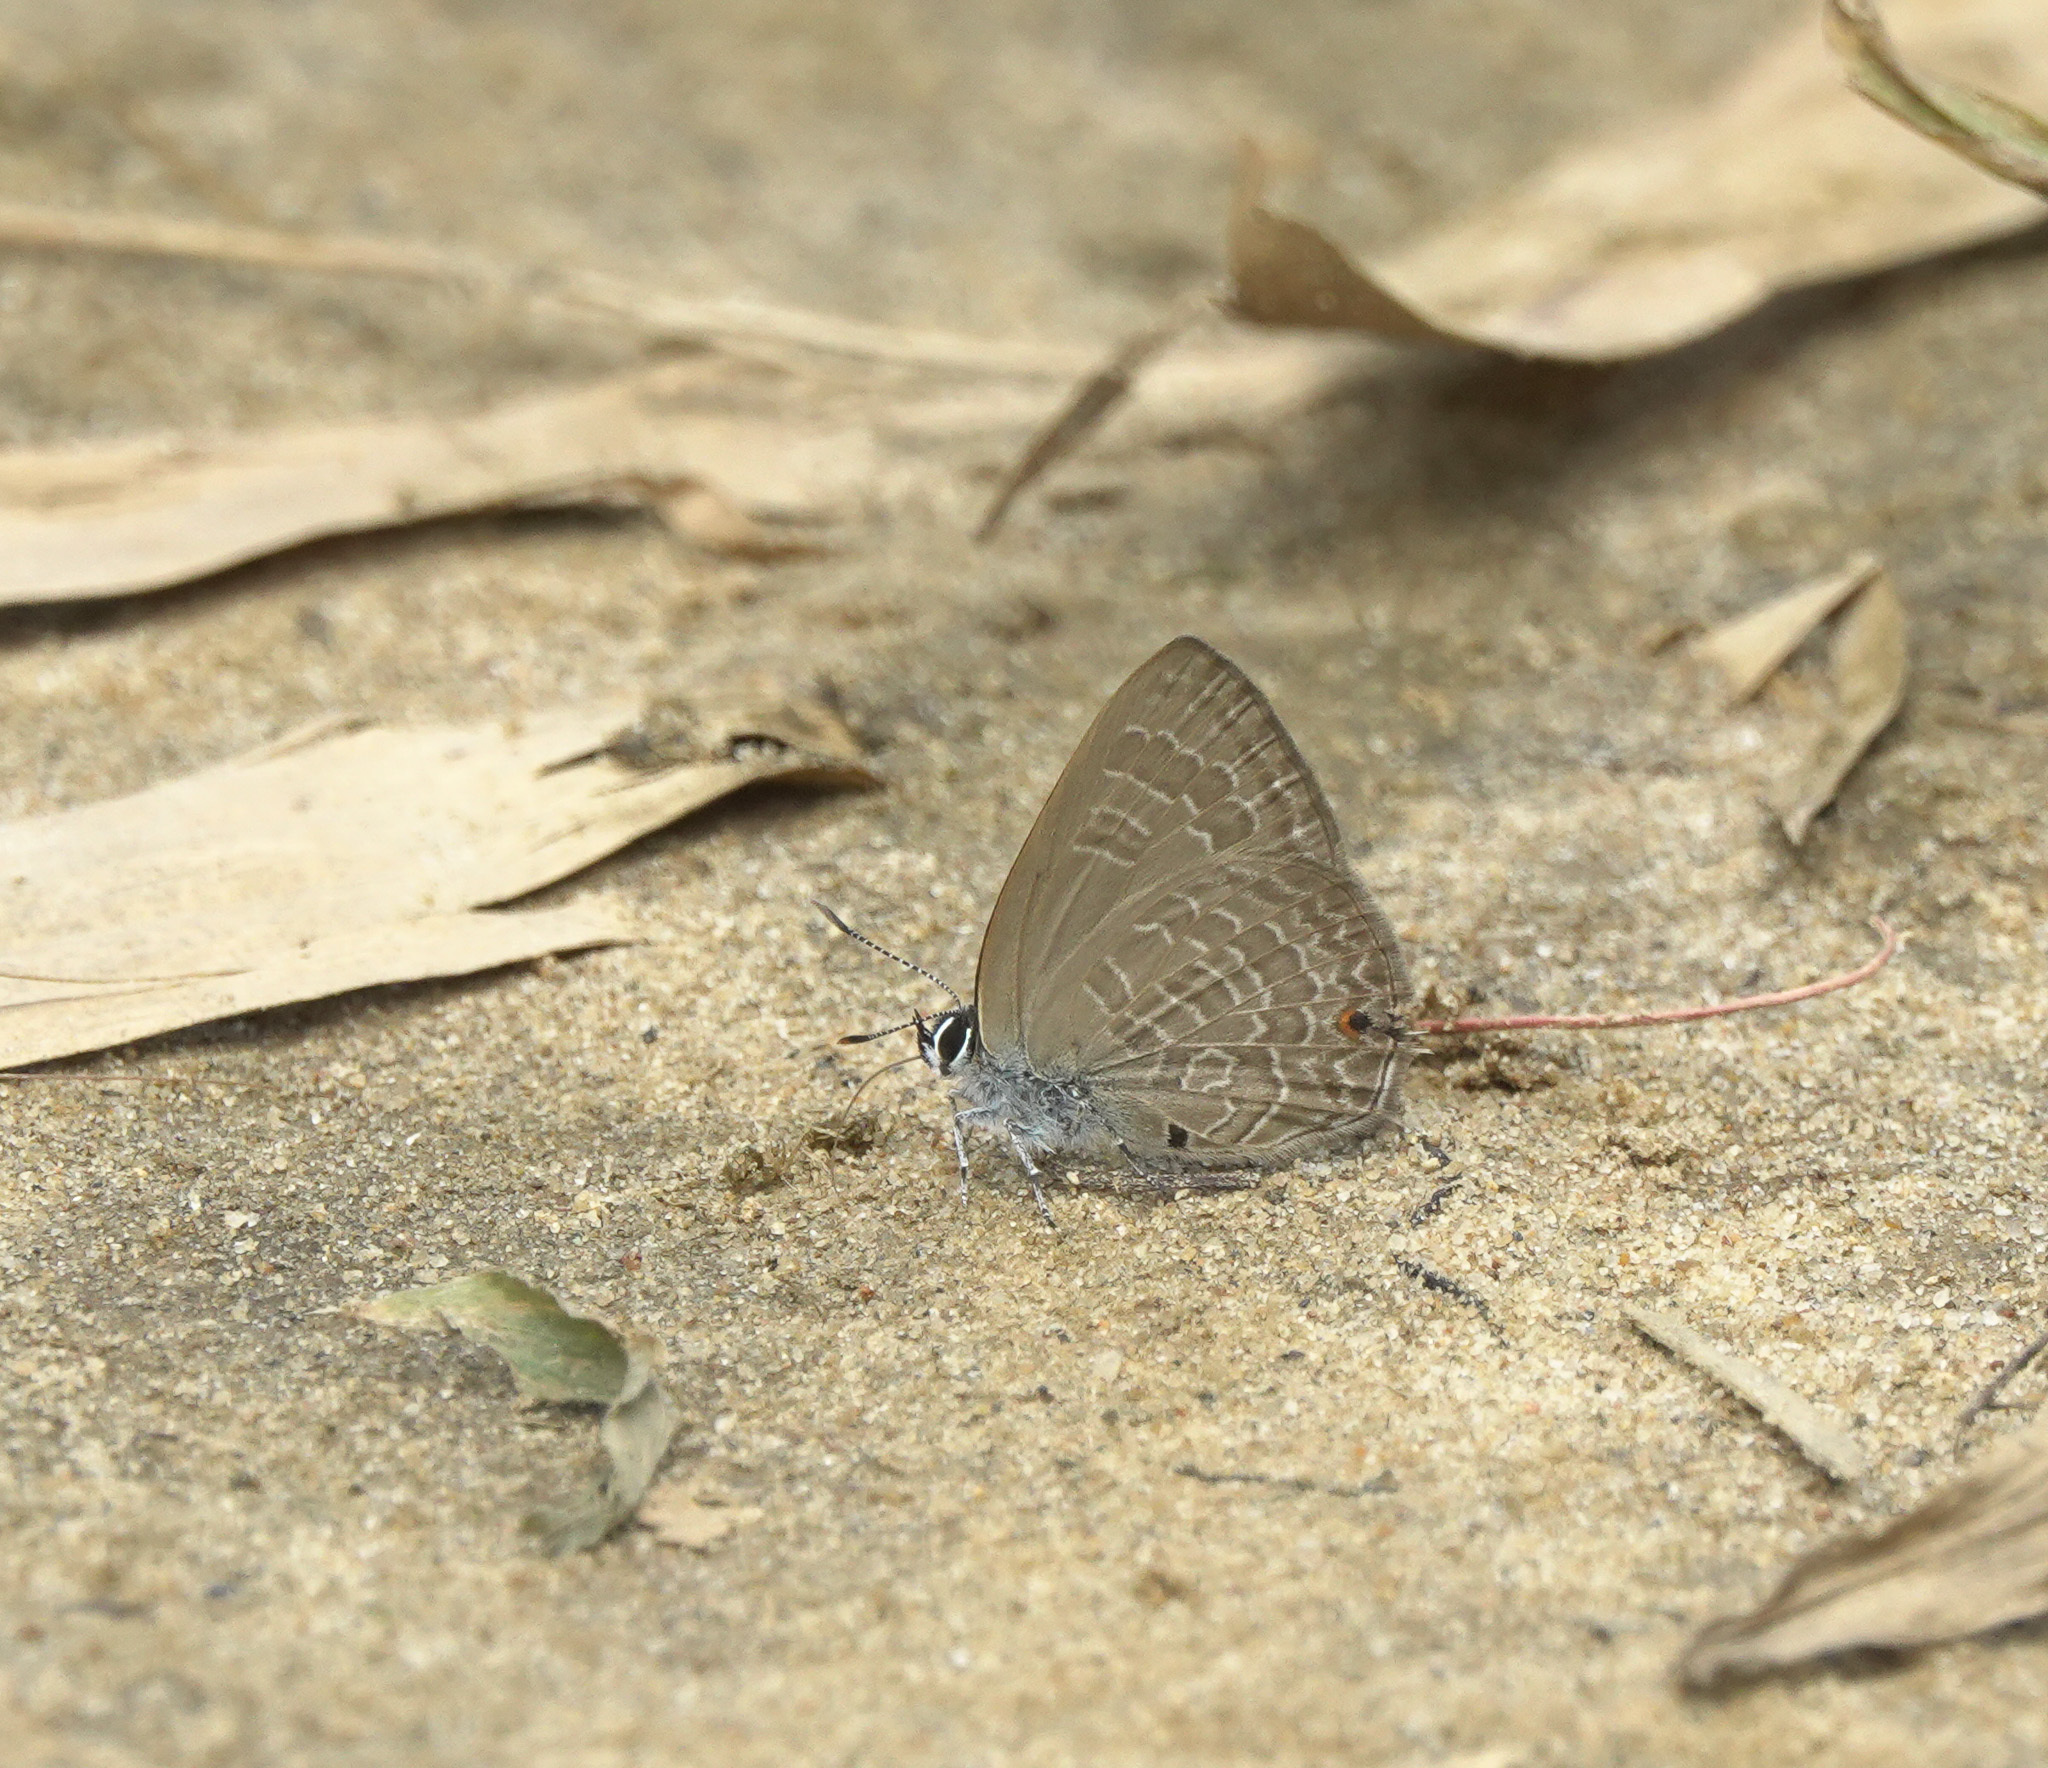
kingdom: Animalia
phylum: Arthropoda
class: Insecta
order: Lepidoptera
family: Lycaenidae
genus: Anthene
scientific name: Anthene emolus
